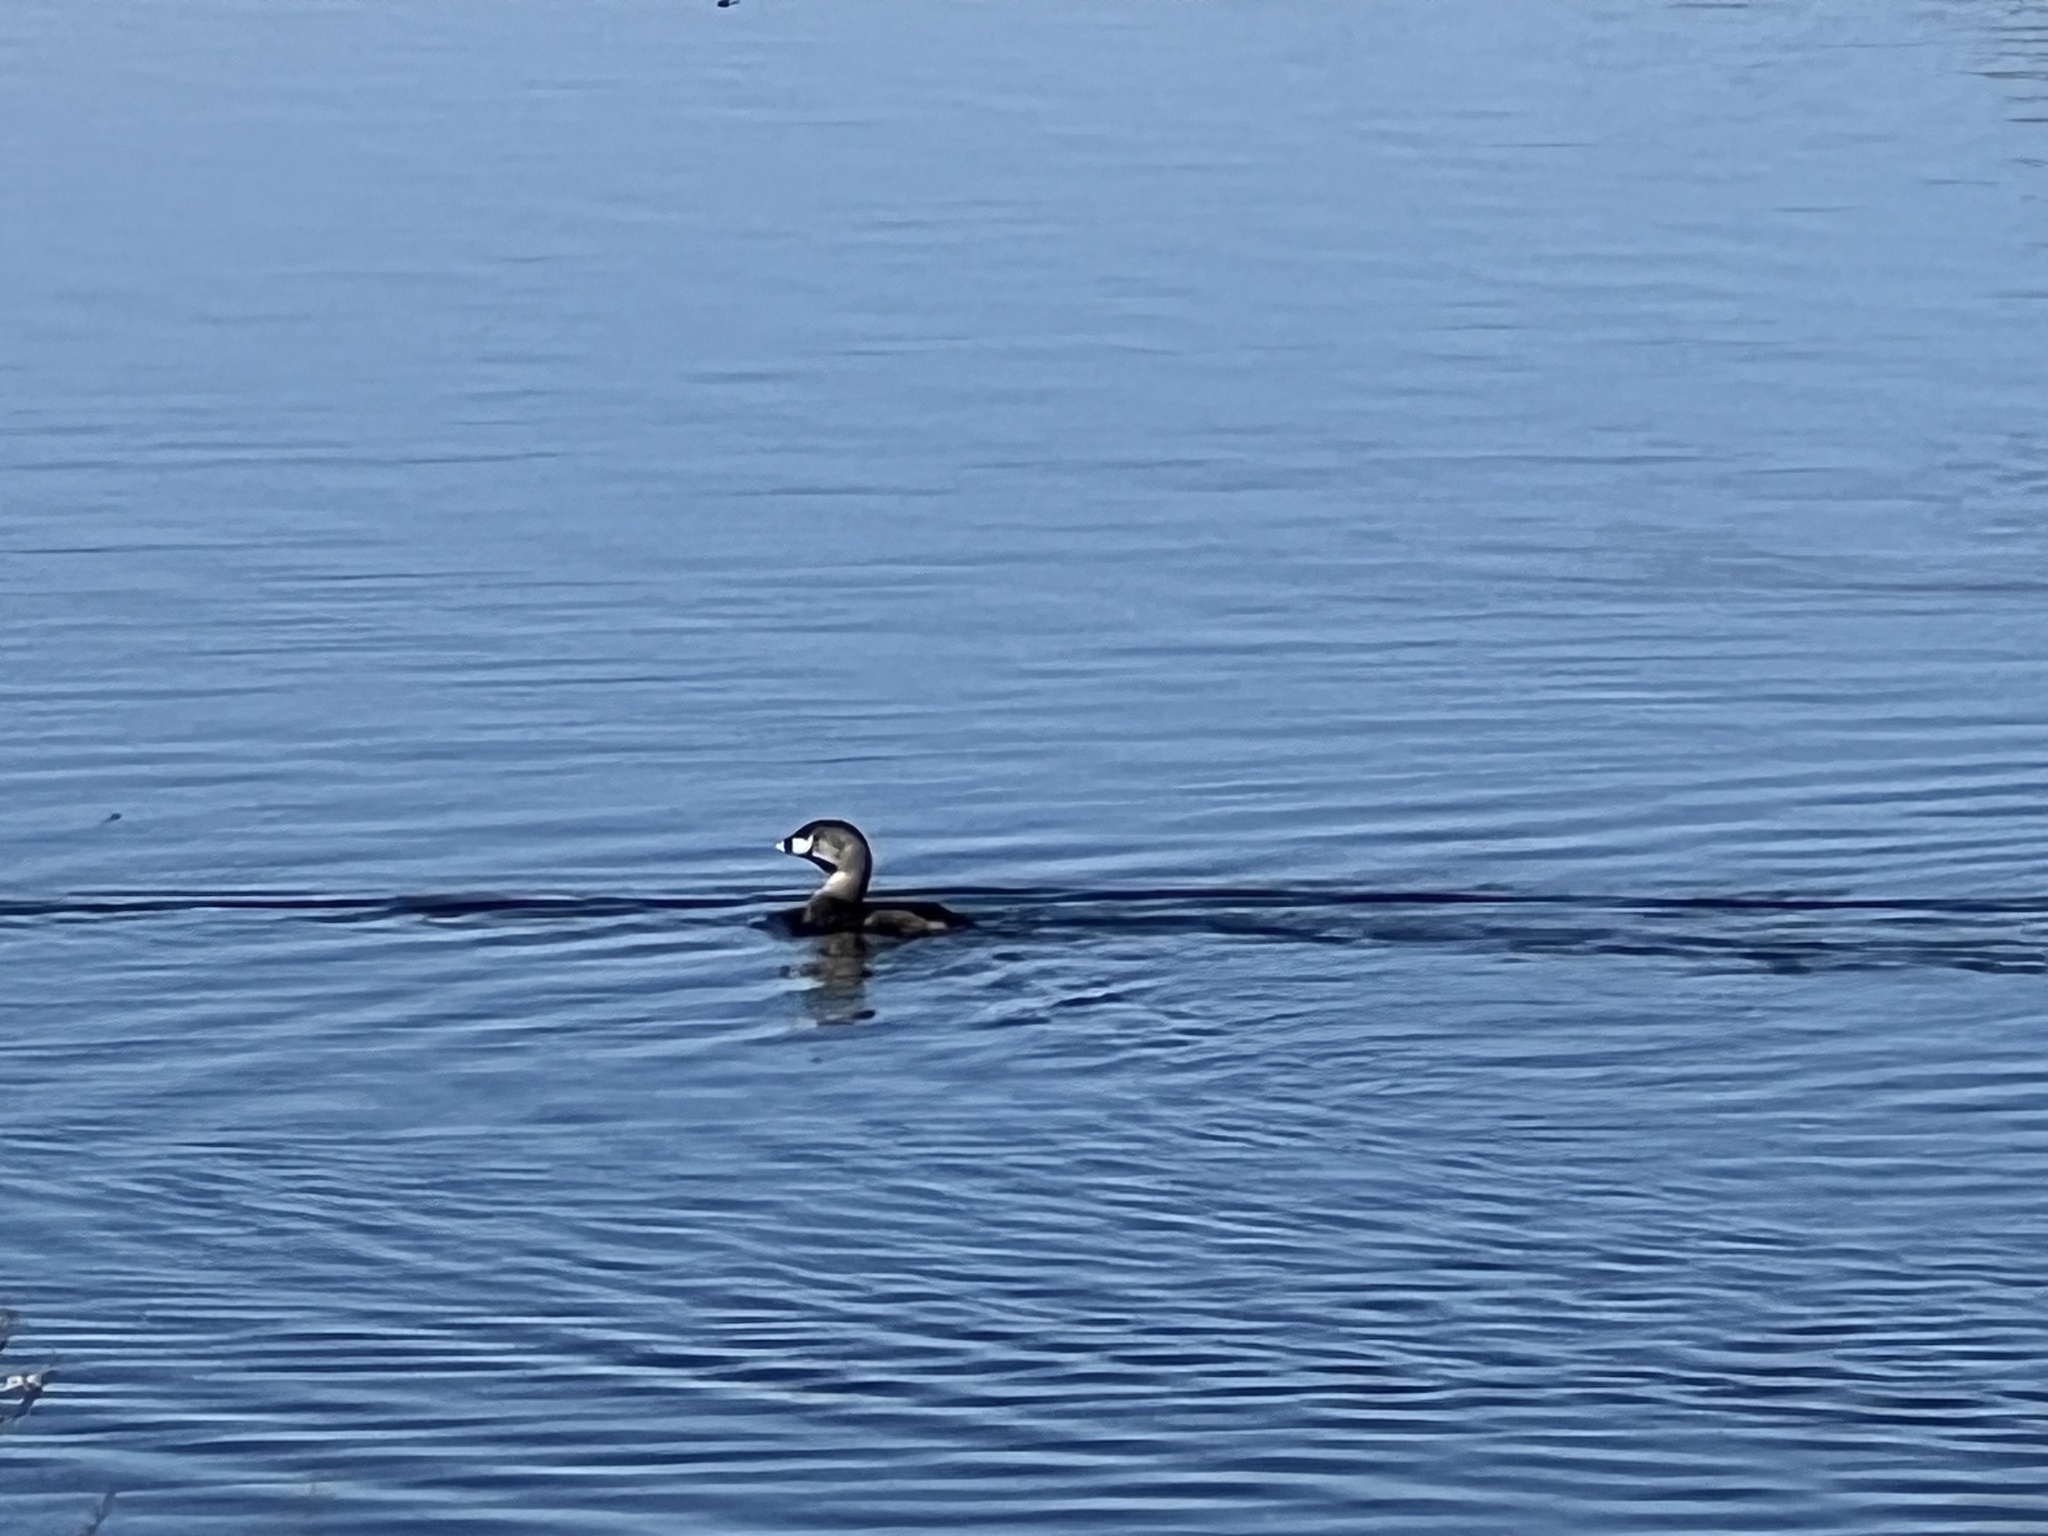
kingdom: Animalia
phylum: Chordata
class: Aves
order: Podicipediformes
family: Podicipedidae
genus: Podilymbus
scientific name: Podilymbus podiceps
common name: Pied-billed grebe
